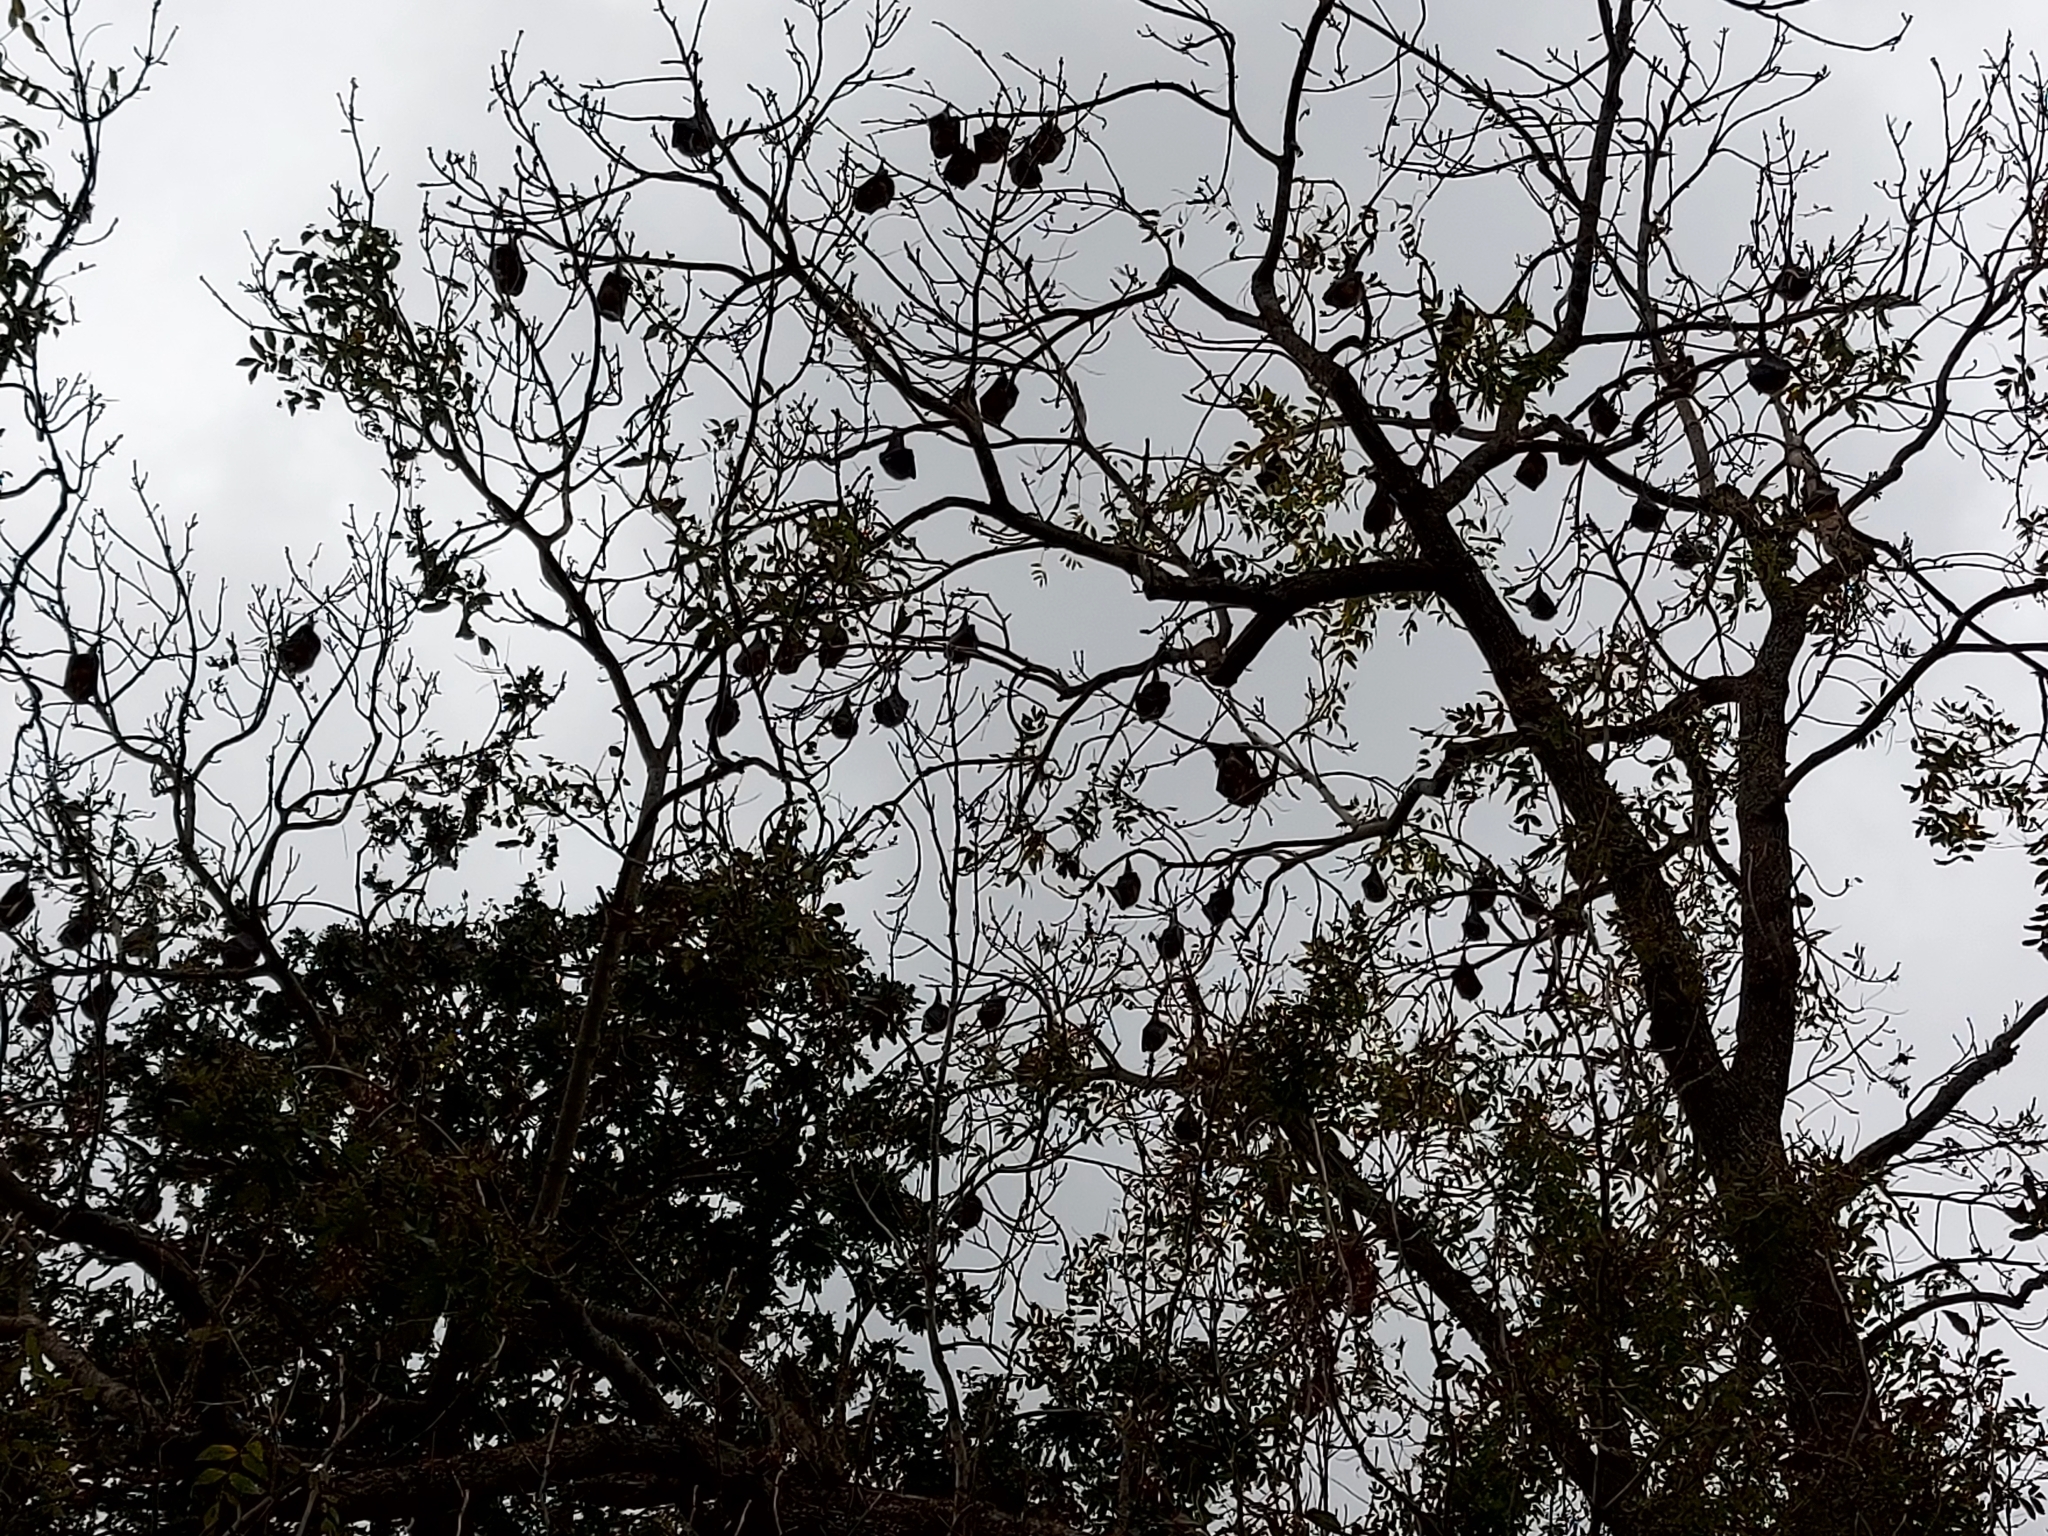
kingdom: Animalia
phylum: Chordata
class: Mammalia
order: Chiroptera
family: Pteropodidae
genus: Pteropus
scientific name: Pteropus poliocephalus
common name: Gray-headed flying fox
